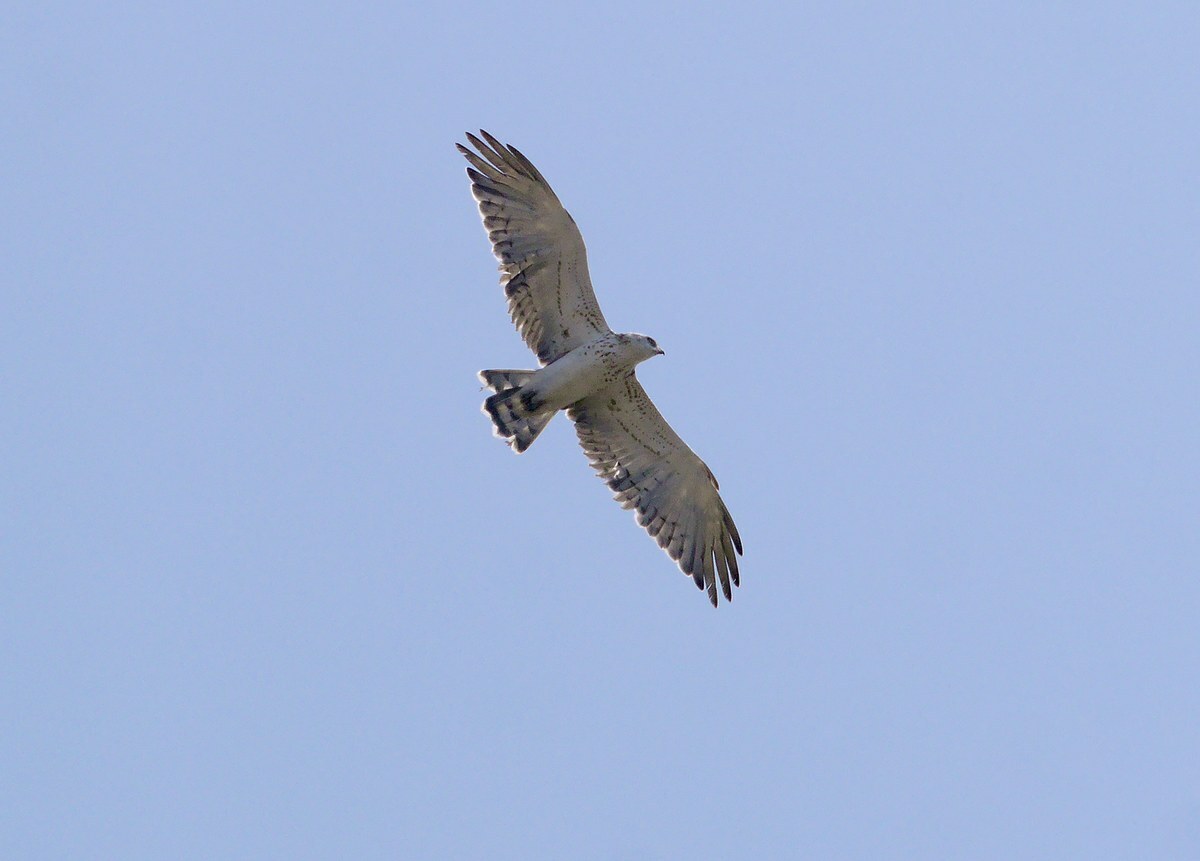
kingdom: Animalia
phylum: Chordata
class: Aves
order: Accipitriformes
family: Accipitridae
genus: Circaetus
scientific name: Circaetus gallicus
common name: Short-toed snake eagle
